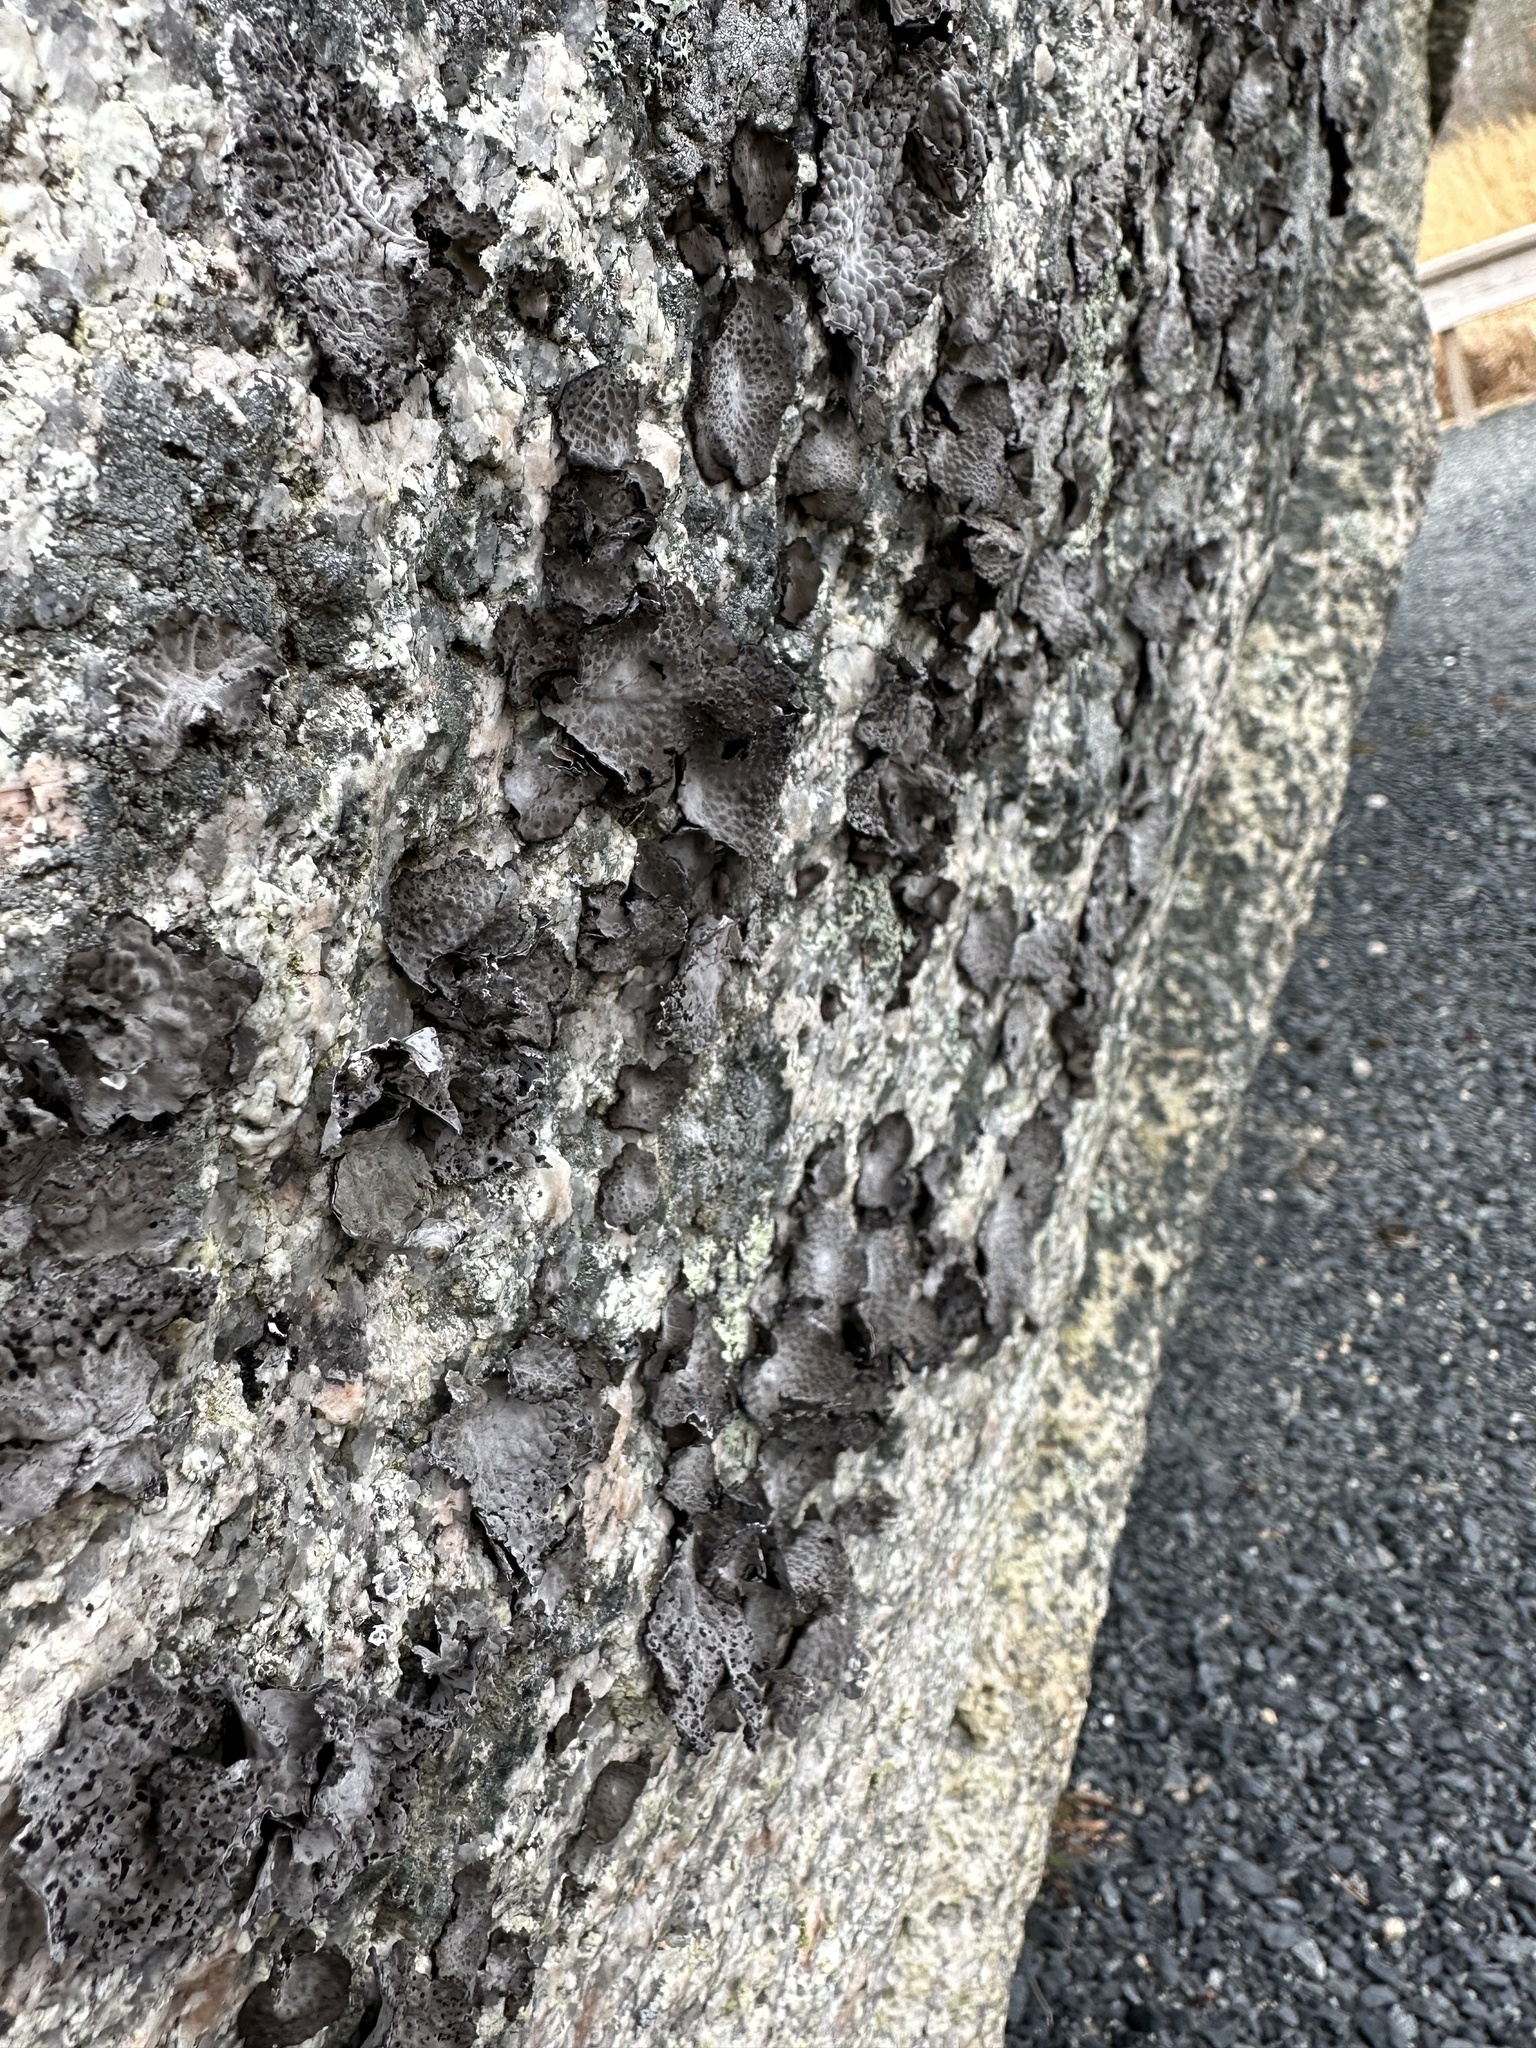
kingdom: Fungi
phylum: Ascomycota
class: Lecanoromycetes
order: Umbilicariales
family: Umbilicariaceae
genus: Lasallia
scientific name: Lasallia papulosa
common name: Common toadskin lichen
